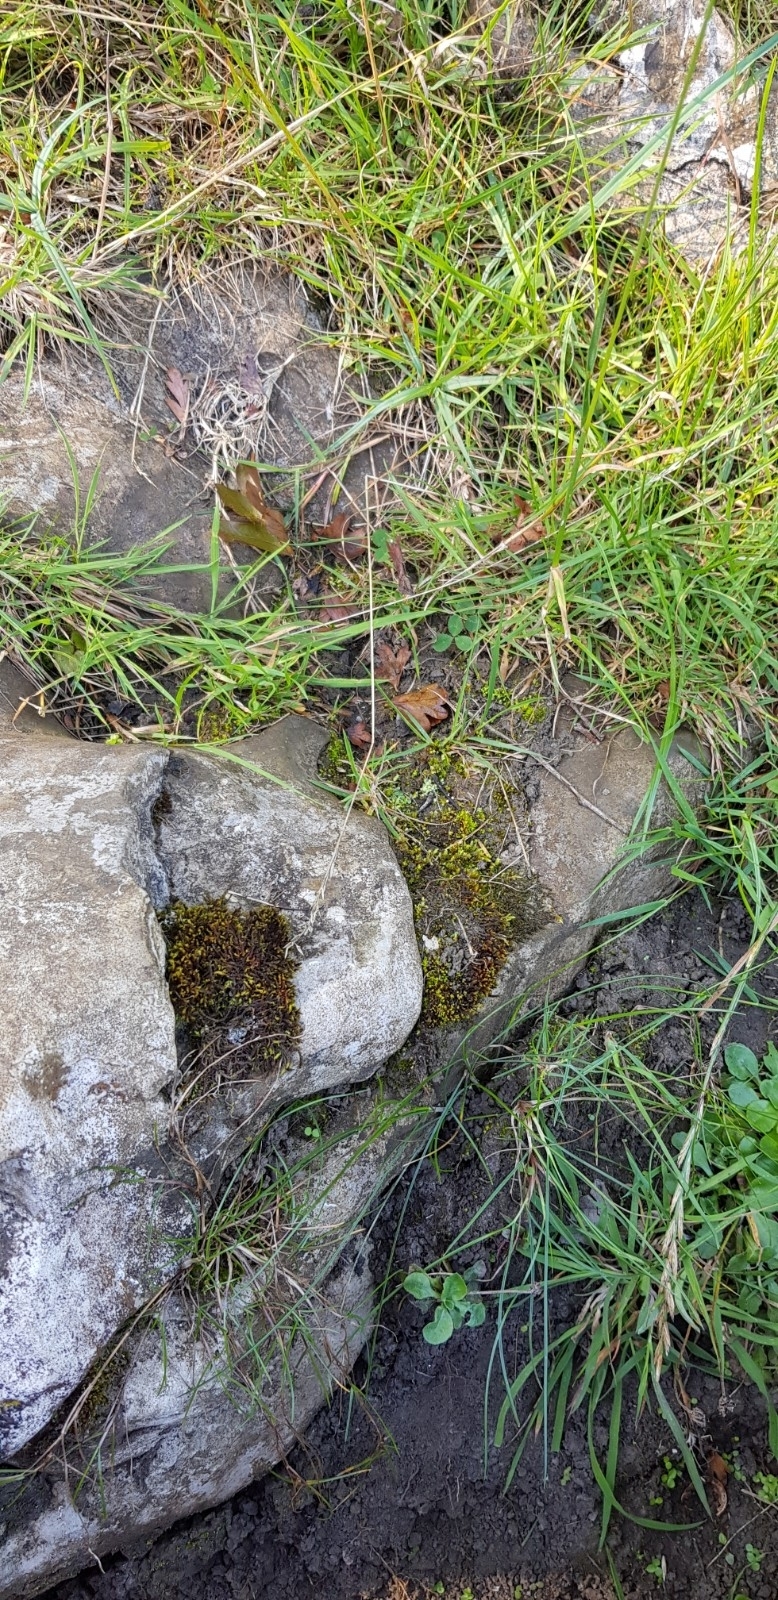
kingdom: Plantae
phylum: Bryophyta
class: Bryopsida
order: Bryales
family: Mniaceae
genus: Pohlia
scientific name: Pohlia wahlenbergii
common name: Wahlenberg's nodding moss
